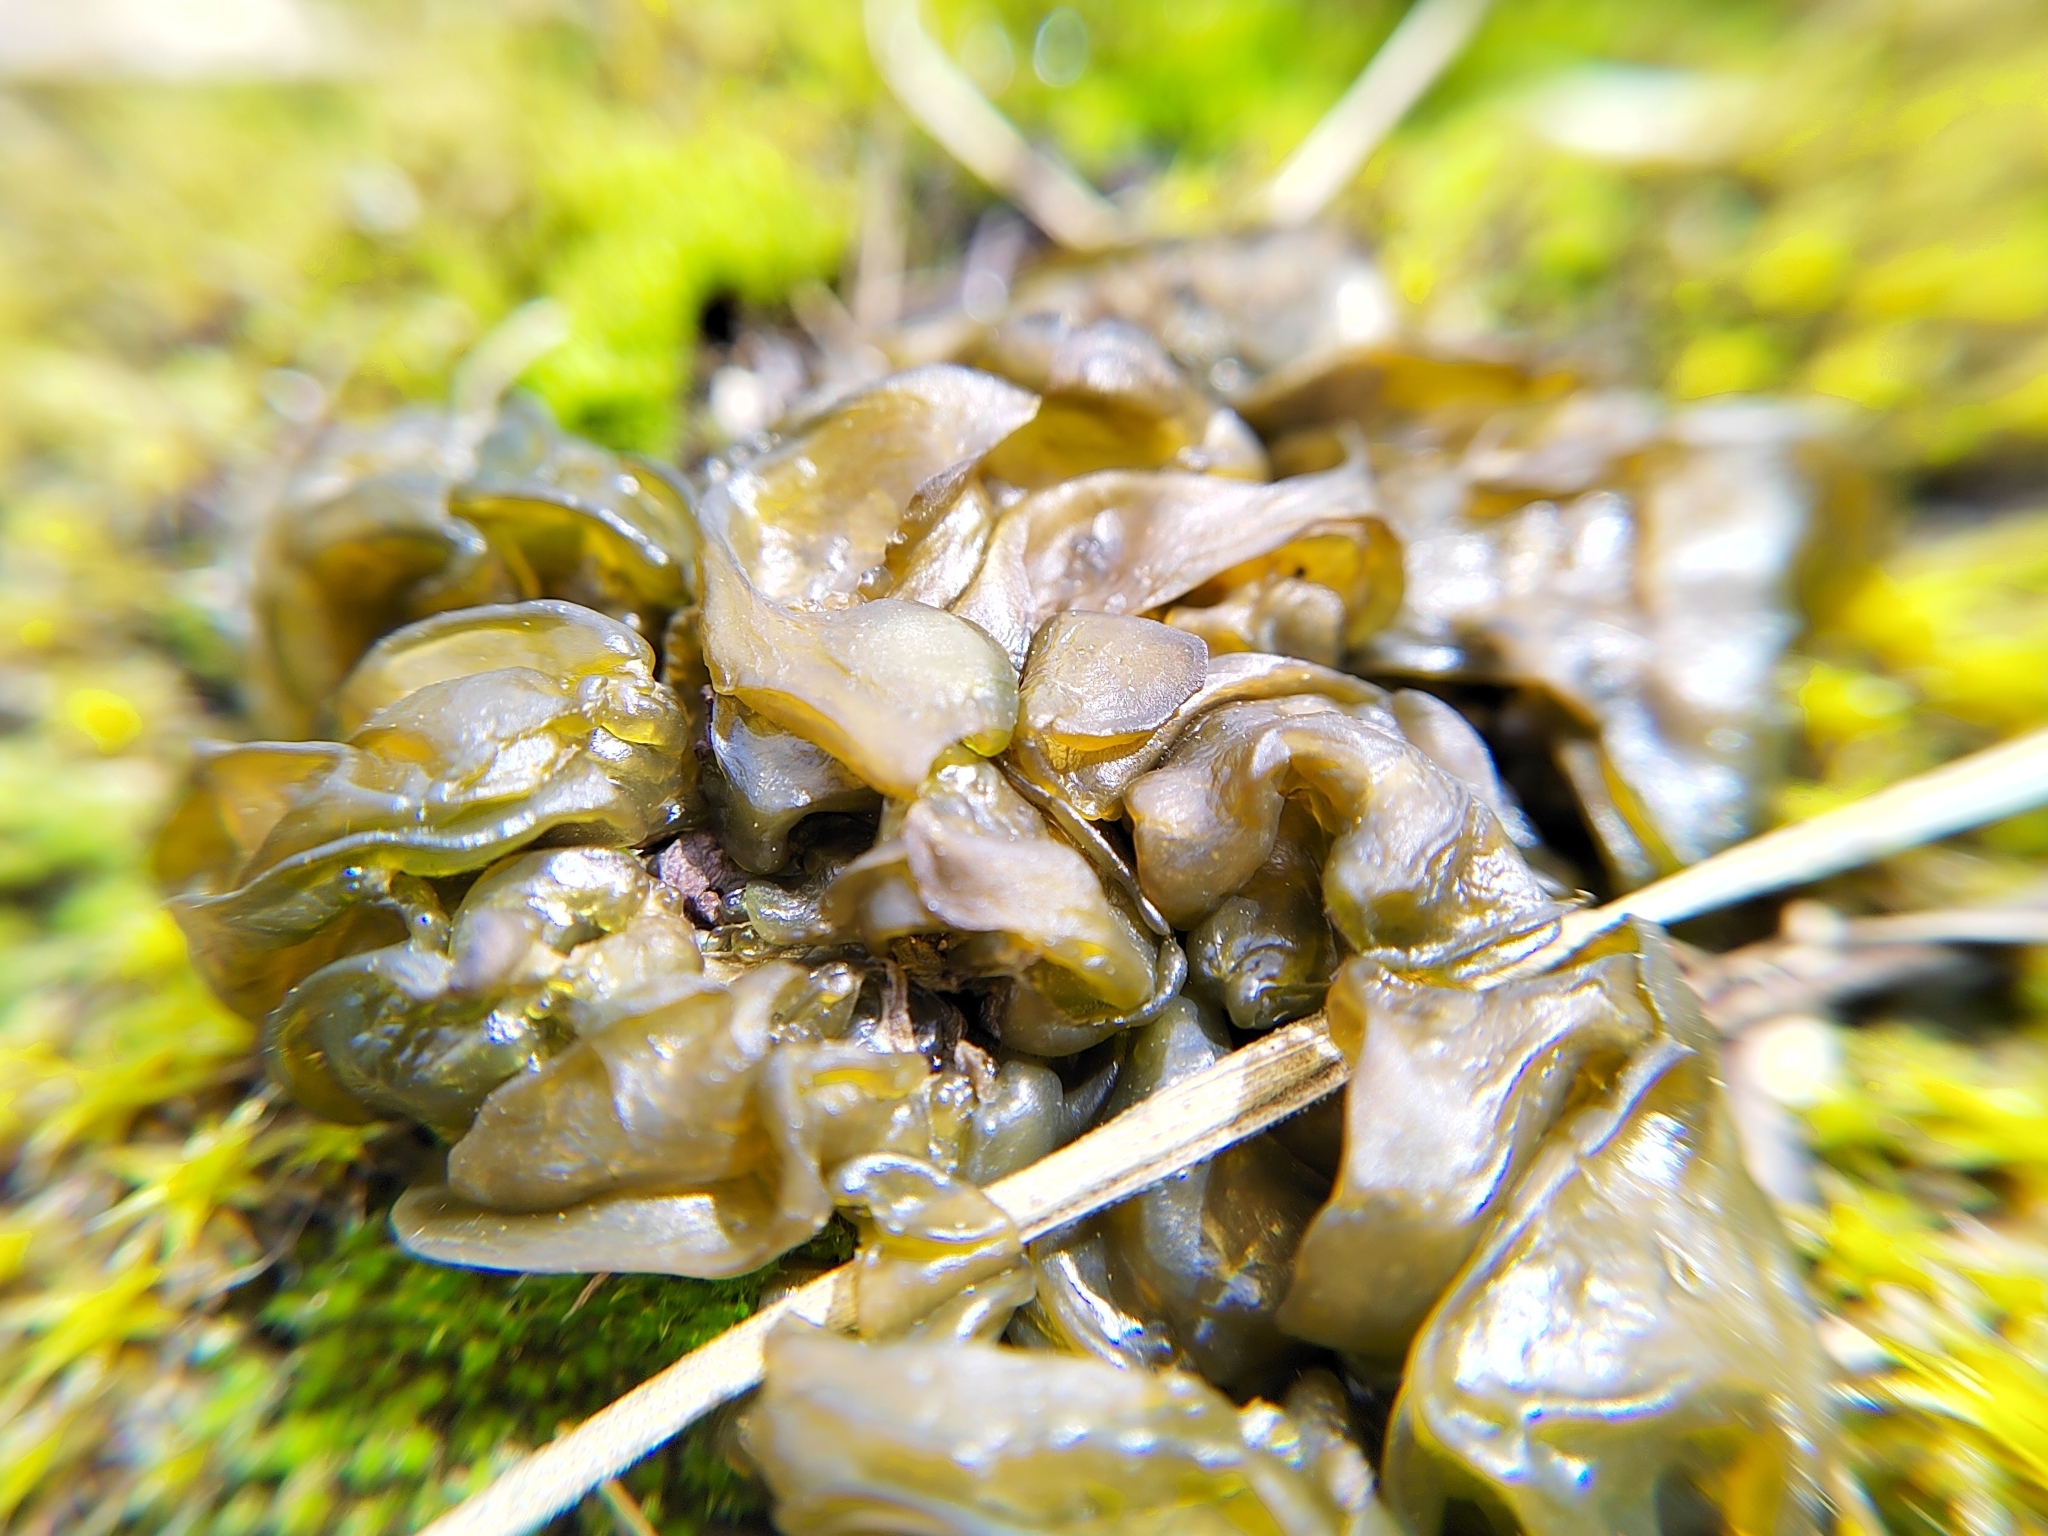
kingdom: Bacteria
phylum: Cyanobacteria
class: Cyanobacteriia
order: Cyanobacteriales
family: Nostocaceae
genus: Nostoc
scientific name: Nostoc commune
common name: Star jelly
